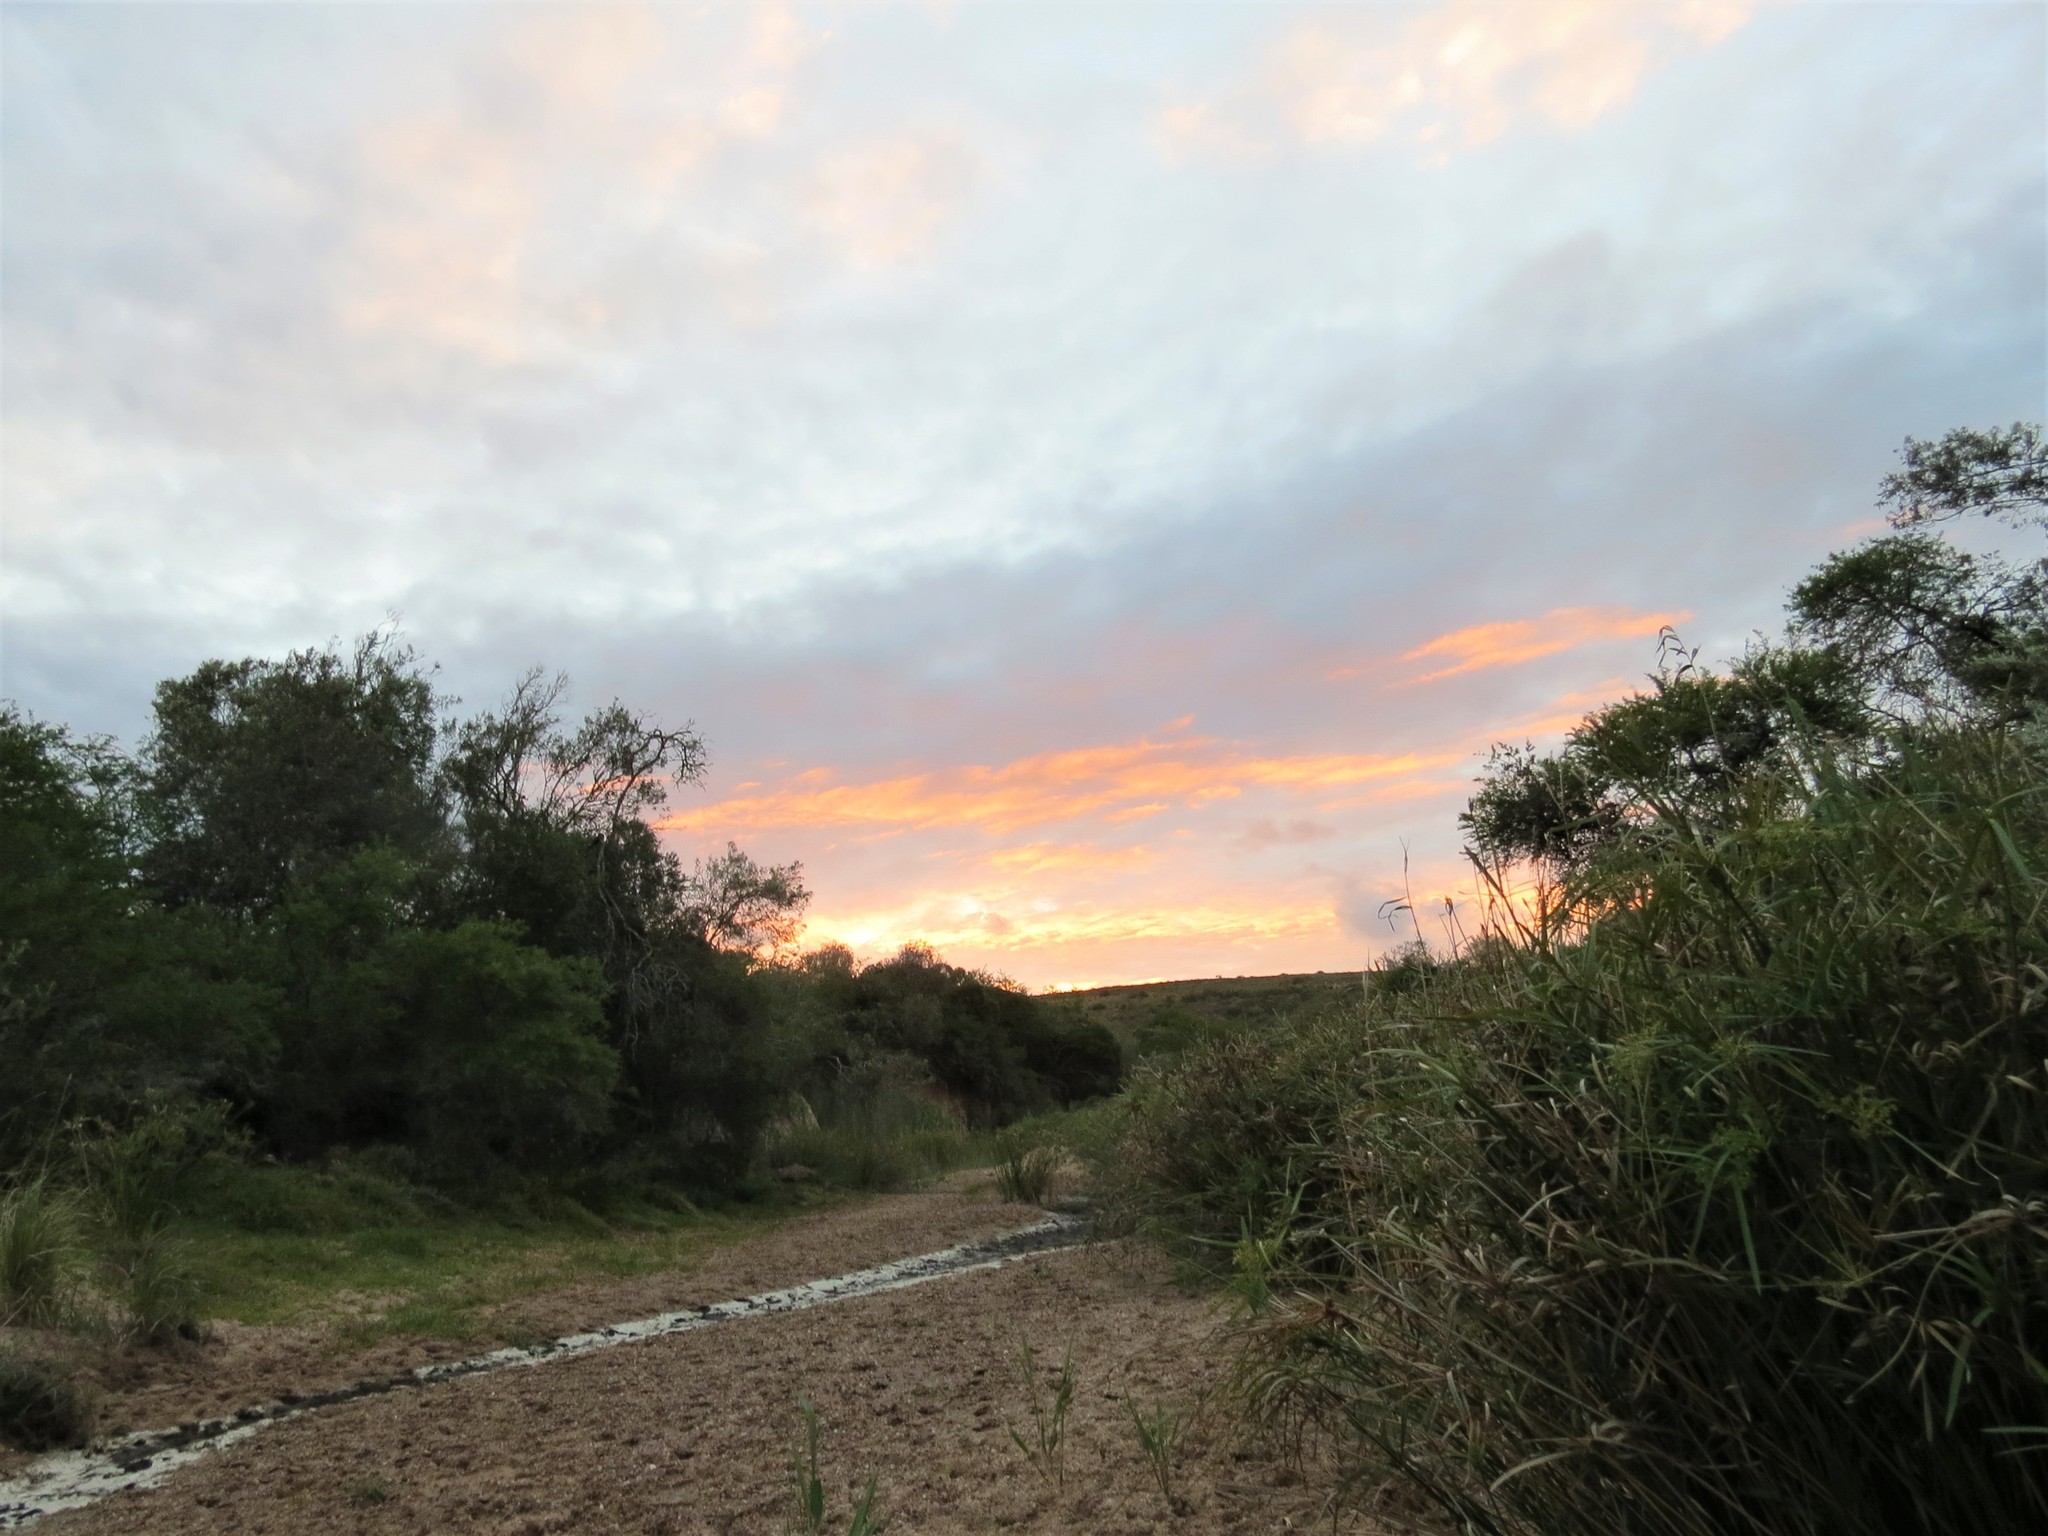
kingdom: Plantae
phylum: Tracheophyta
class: Liliopsida
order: Poales
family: Cyperaceae
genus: Cyperus
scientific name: Cyperus textilis
